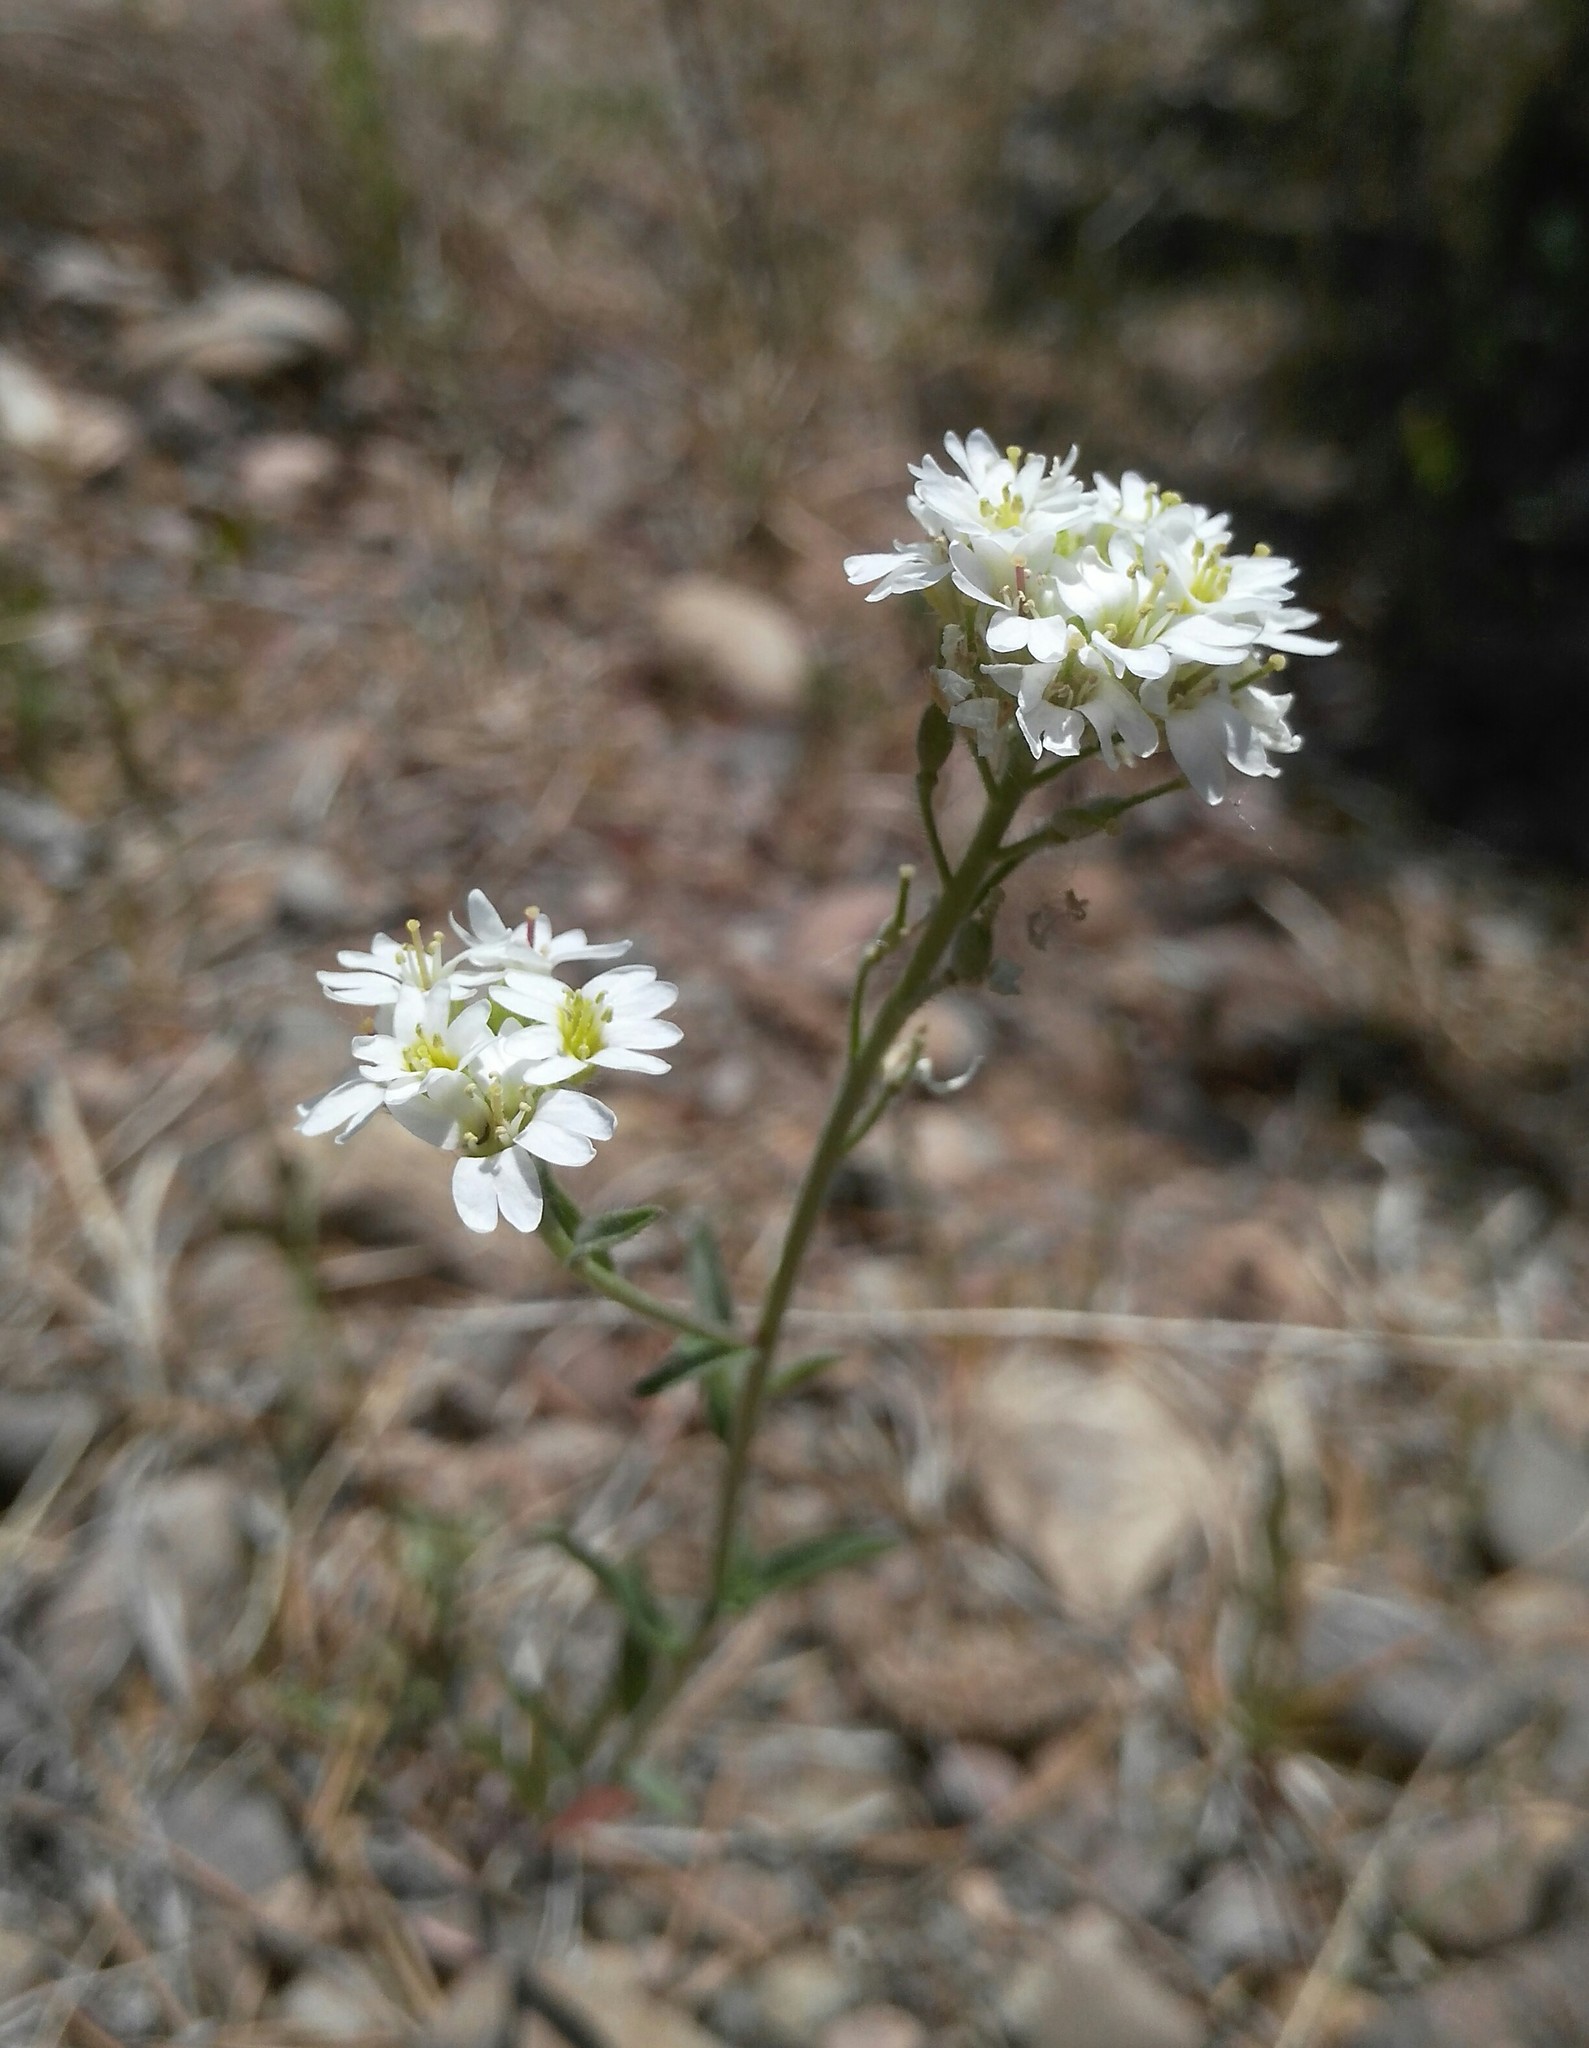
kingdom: Plantae
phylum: Tracheophyta
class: Magnoliopsida
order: Brassicales
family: Brassicaceae
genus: Berteroa
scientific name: Berteroa incana
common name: Hoary alison
